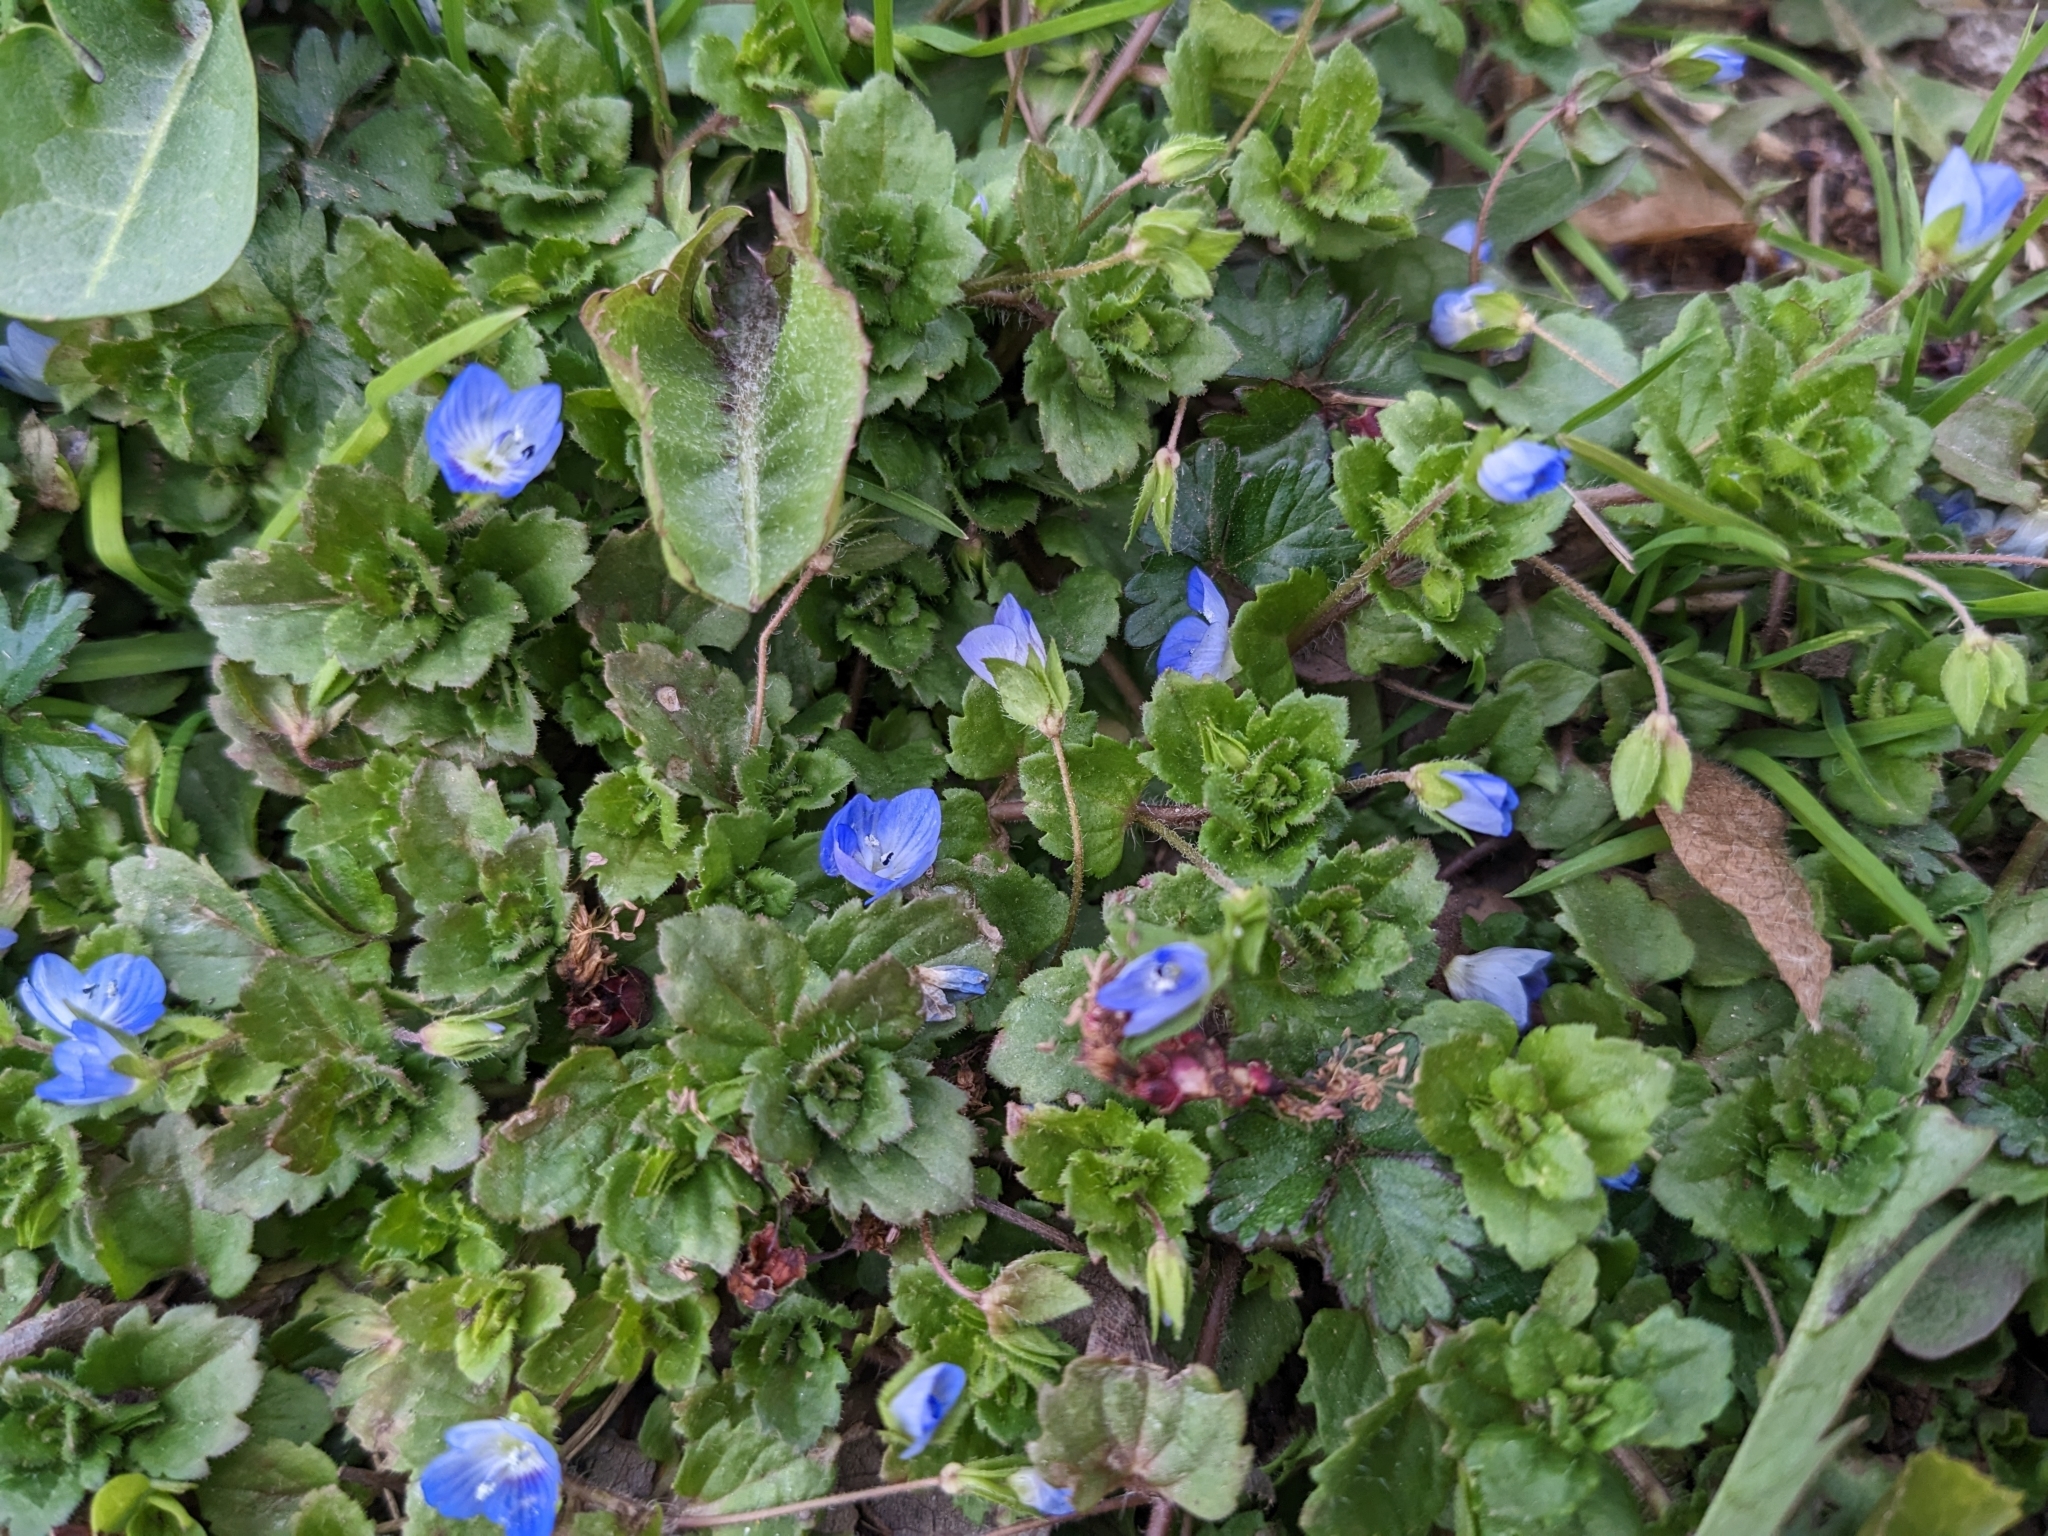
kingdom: Plantae
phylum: Tracheophyta
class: Magnoliopsida
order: Lamiales
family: Plantaginaceae
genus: Veronica
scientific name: Veronica persica
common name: Common field-speedwell
